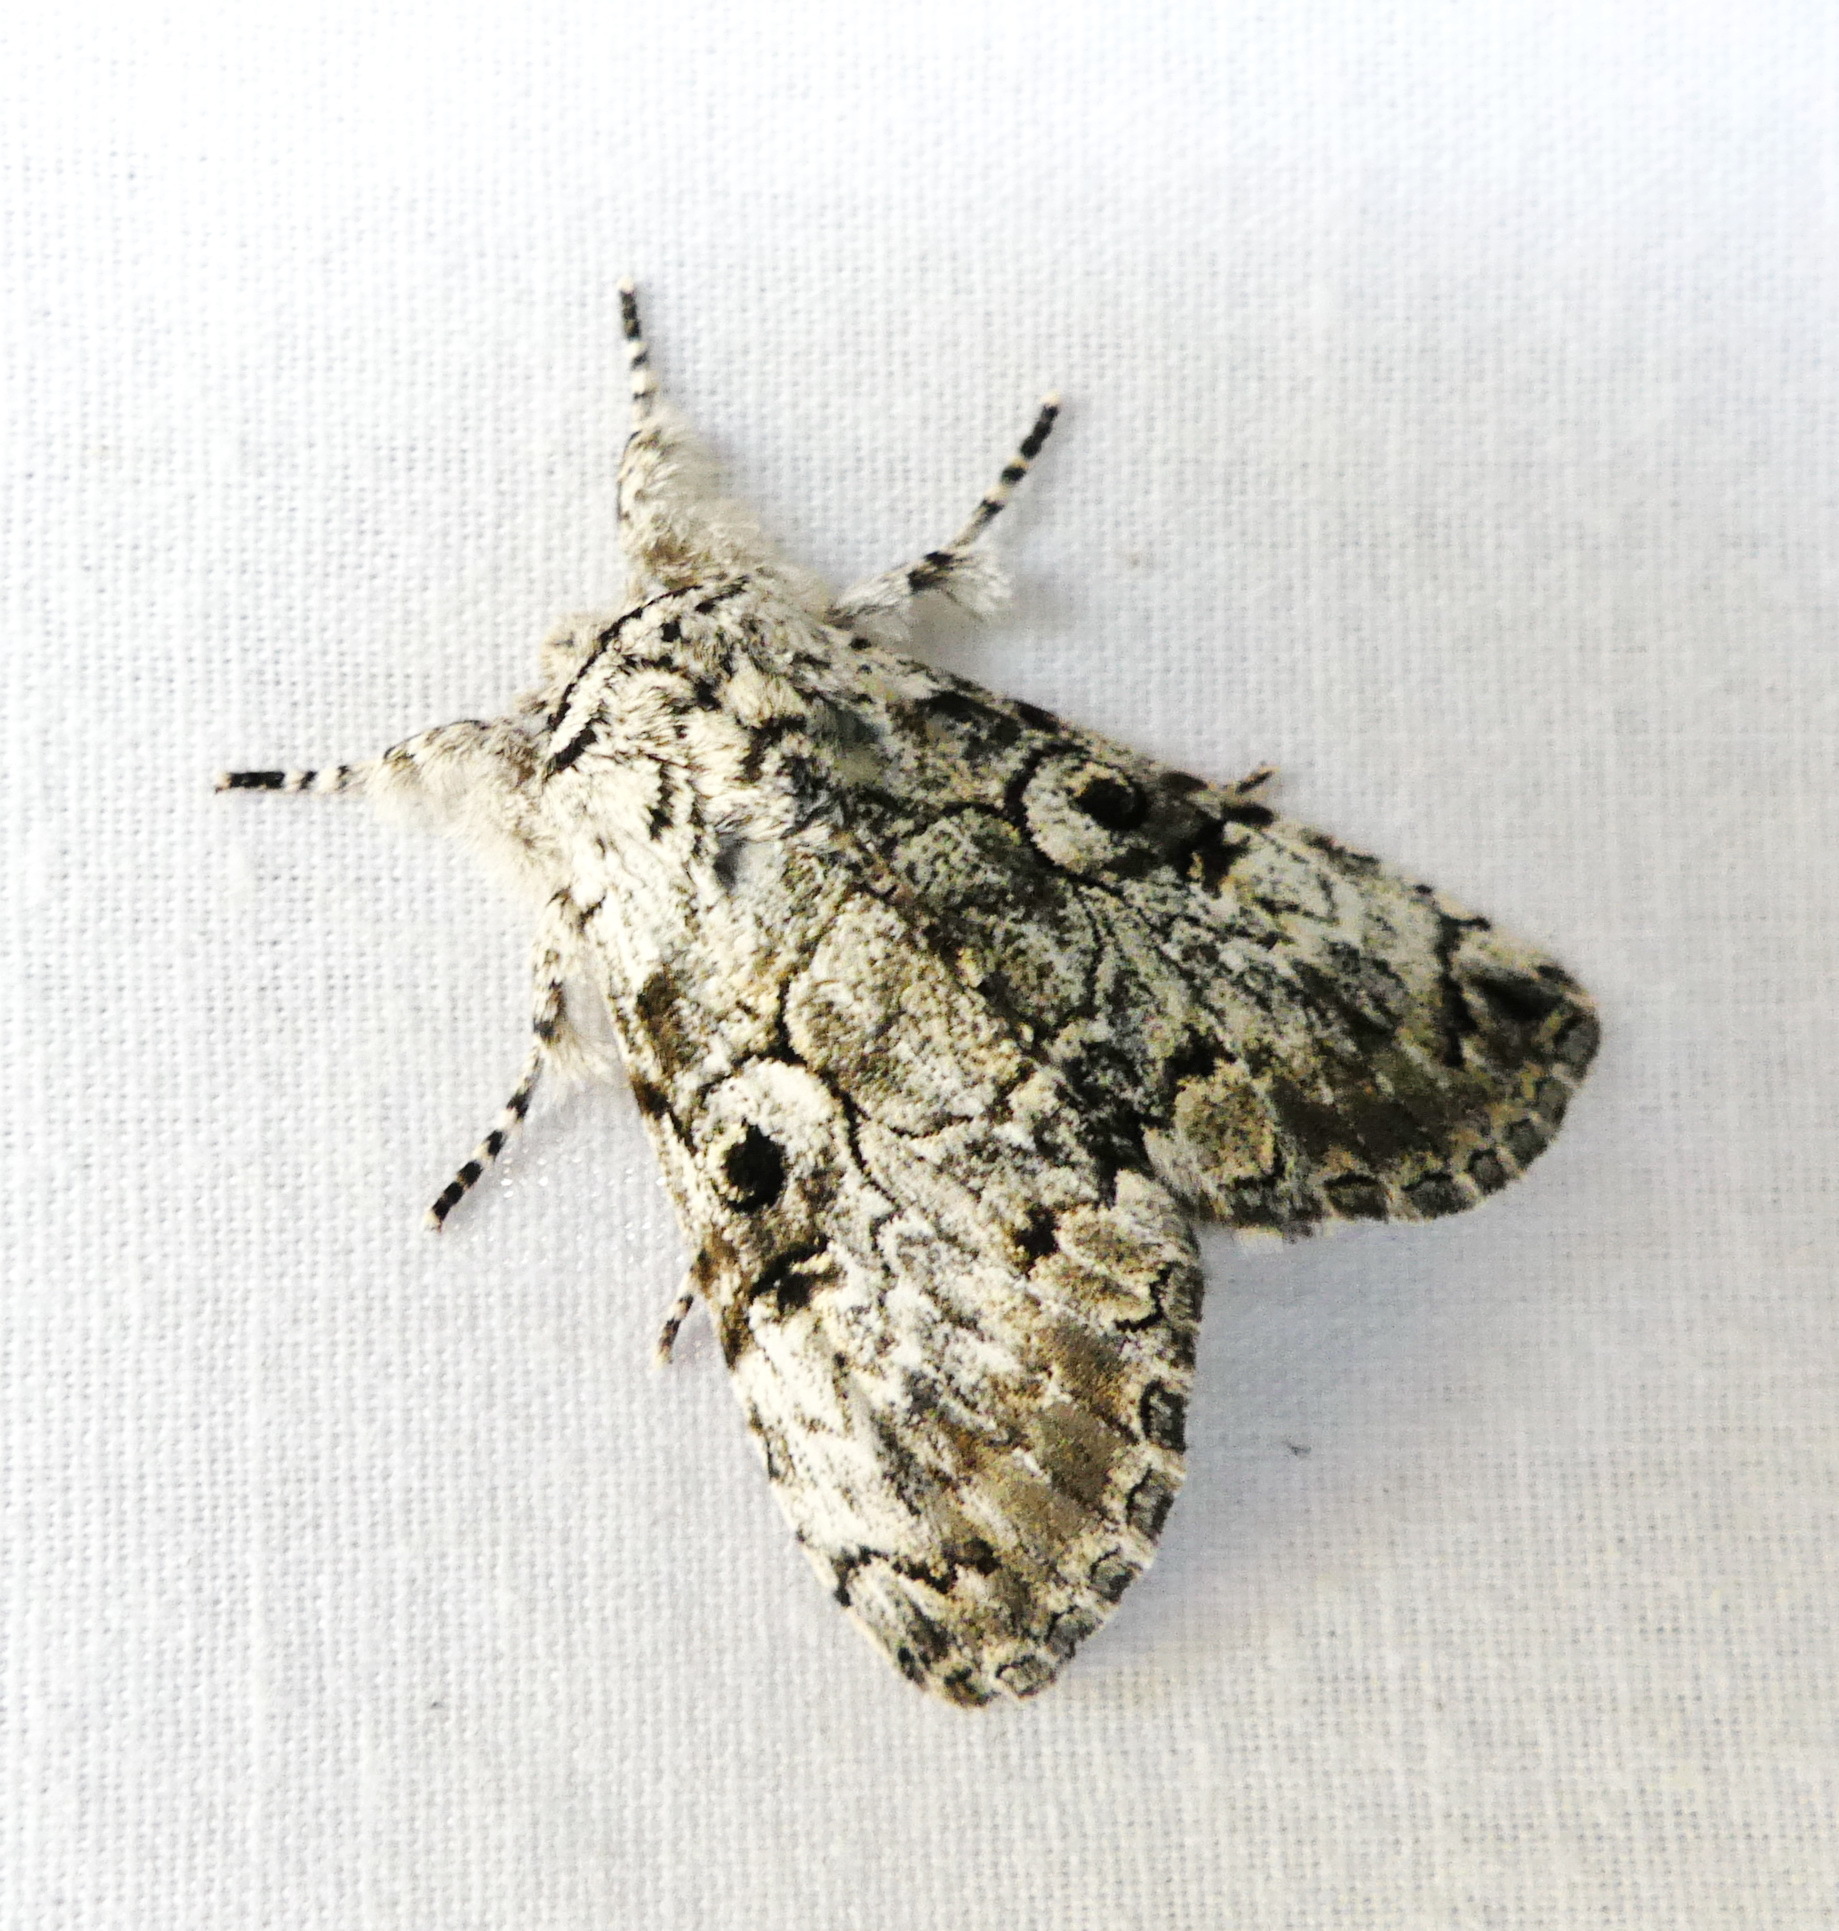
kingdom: Animalia
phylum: Arthropoda
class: Insecta
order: Lepidoptera
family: Noctuidae
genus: Charadra
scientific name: Charadra deridens
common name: Marbled tuffet
